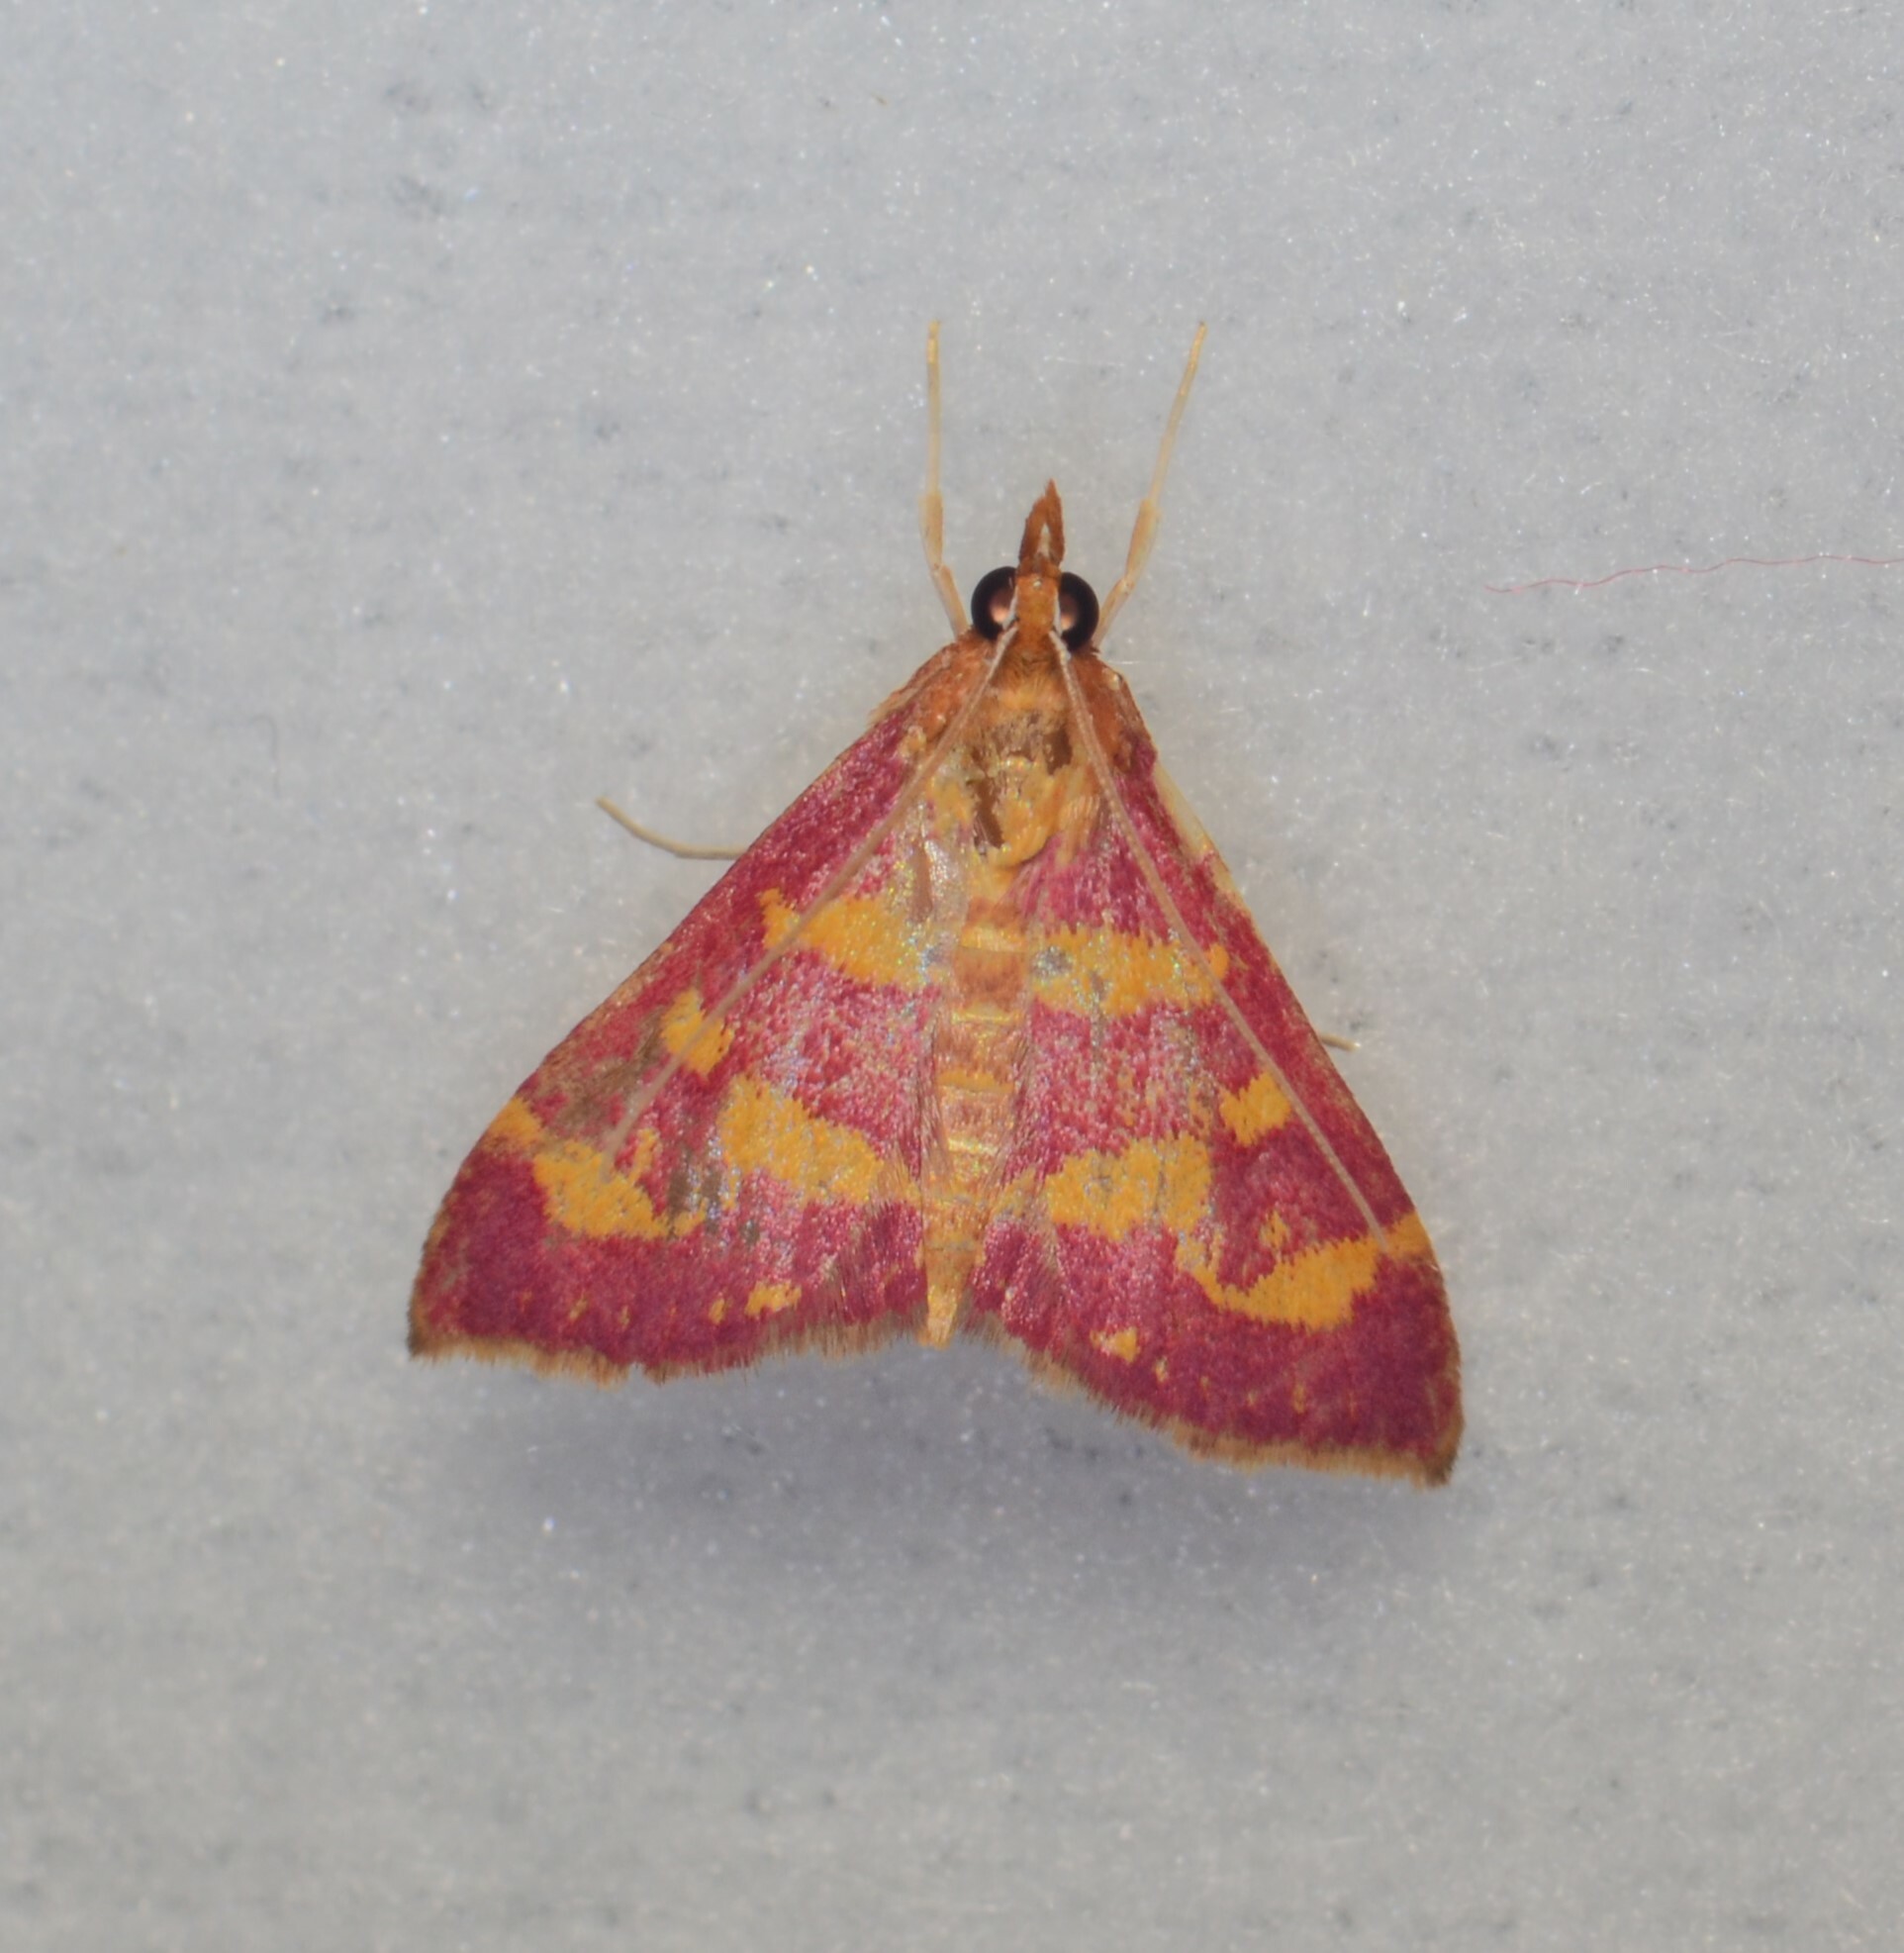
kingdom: Animalia
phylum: Arthropoda
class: Insecta
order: Lepidoptera
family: Crambidae
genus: Pyrausta
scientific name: Pyrausta tyralis
